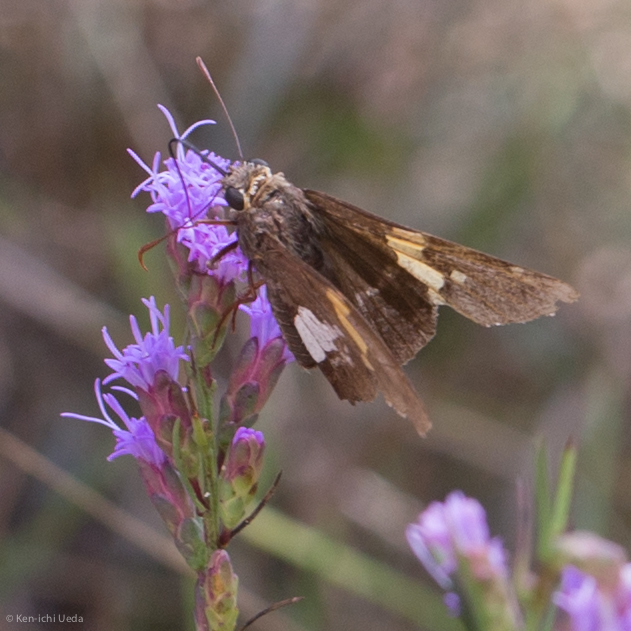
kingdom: Animalia
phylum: Arthropoda
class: Insecta
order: Lepidoptera
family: Hesperiidae
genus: Epargyreus
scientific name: Epargyreus clarus
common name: Silver-spotted skipper
